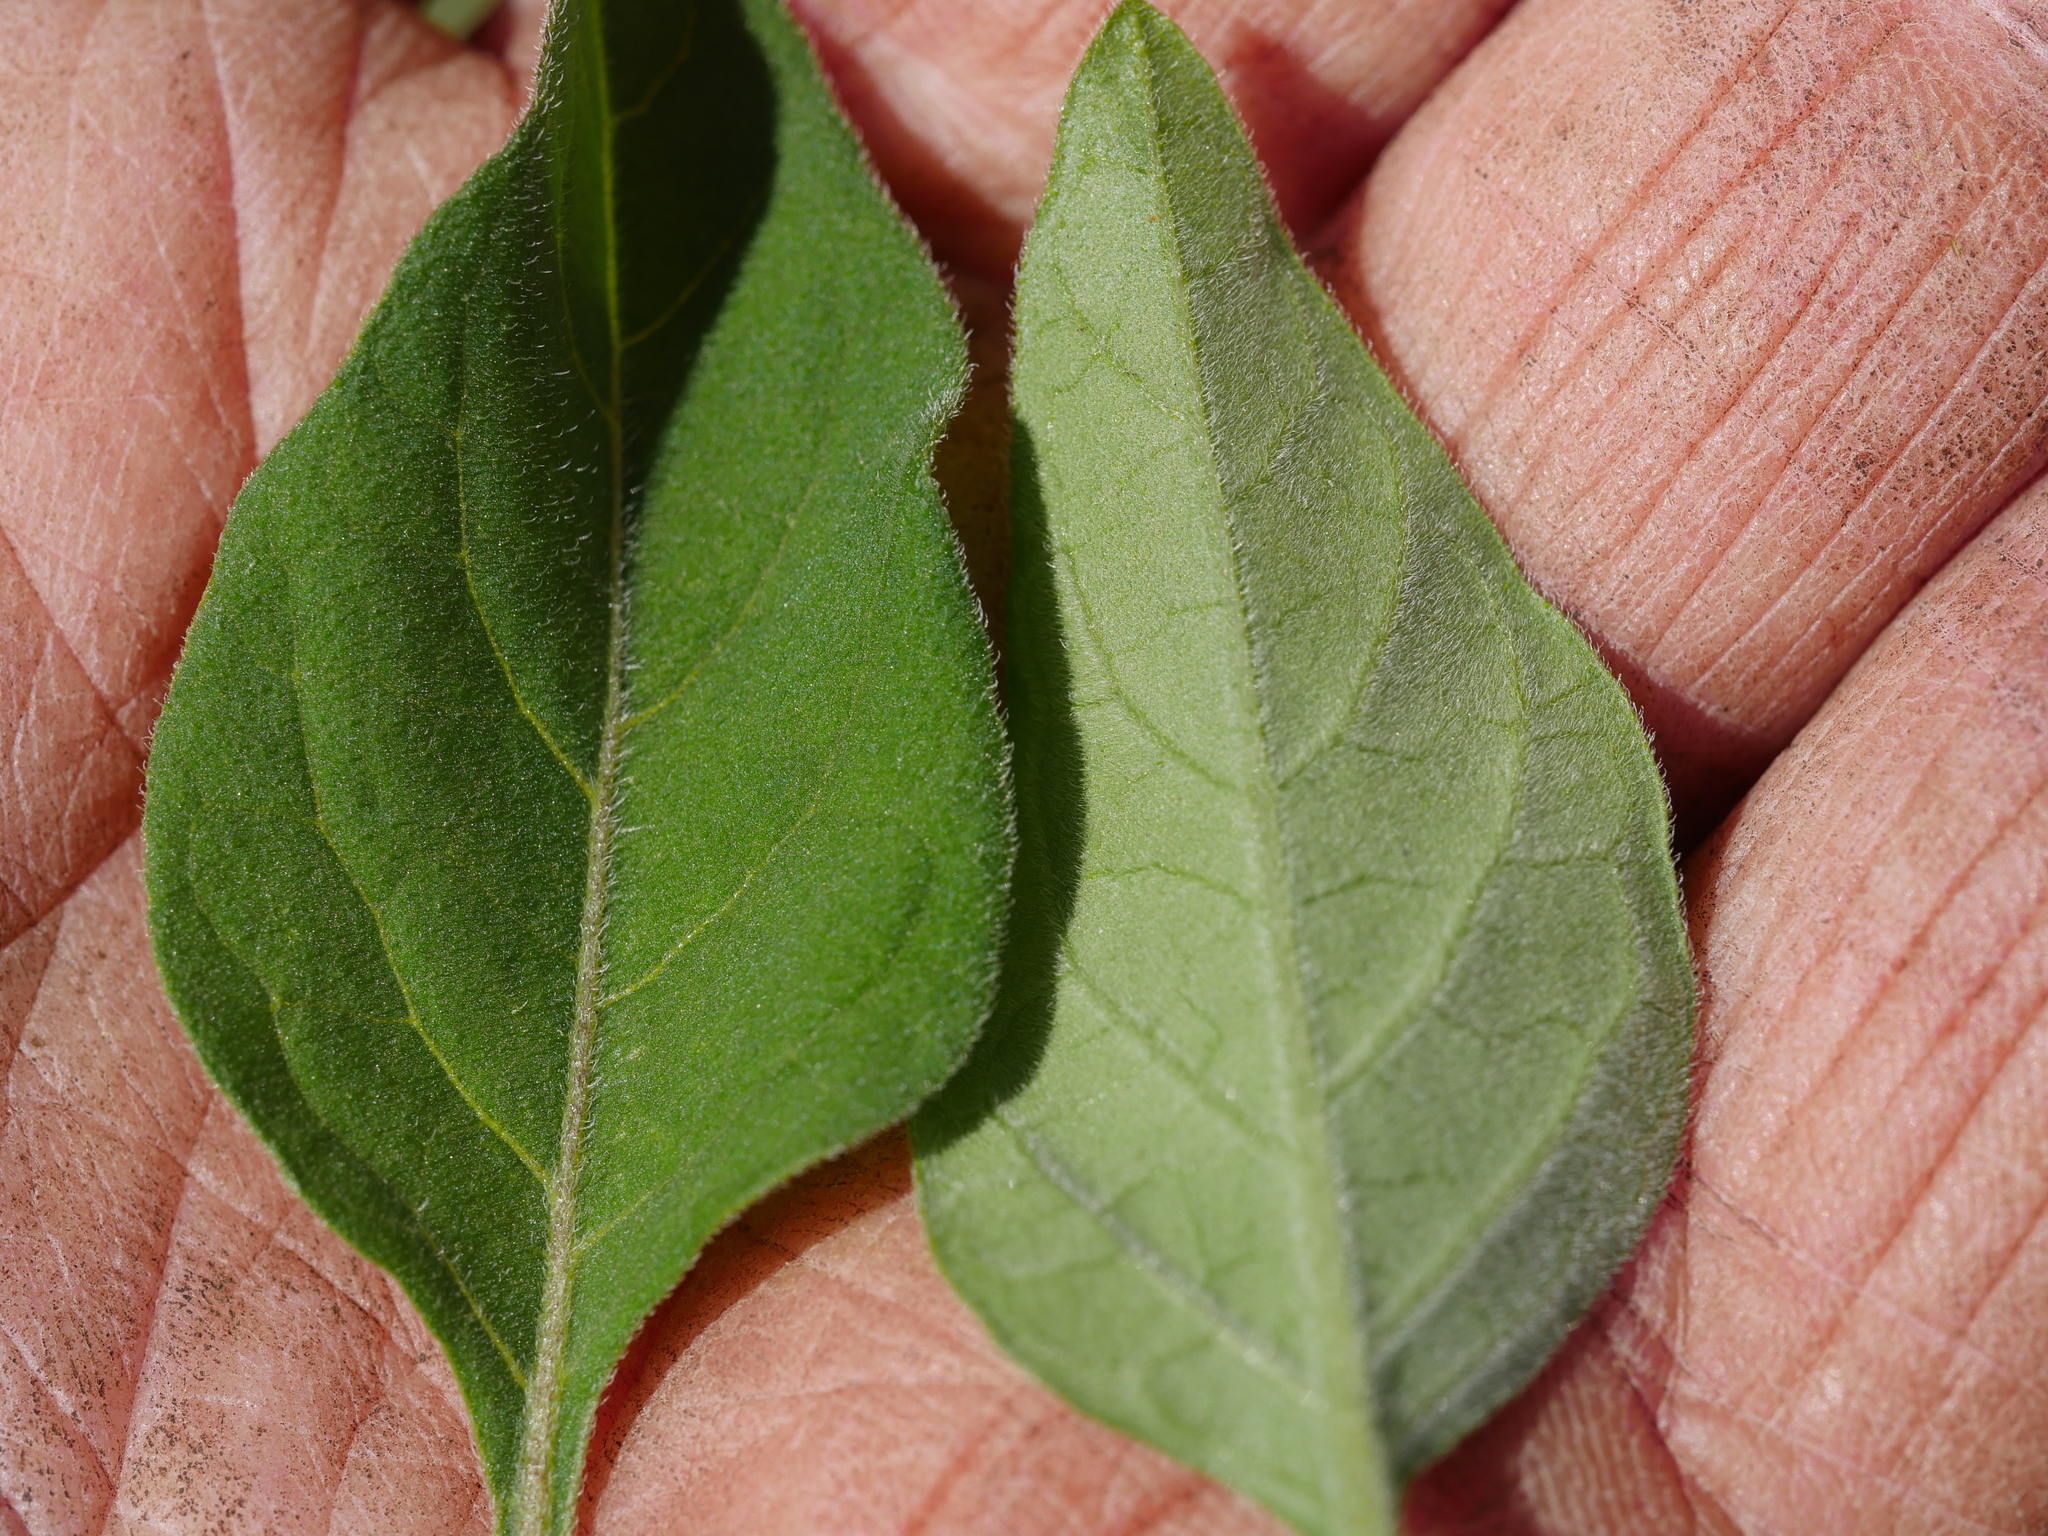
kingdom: Plantae
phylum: Tracheophyta
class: Magnoliopsida
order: Solanales
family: Solanaceae
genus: Solanum
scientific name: Solanum chenopodioides
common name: Tall nightshade
